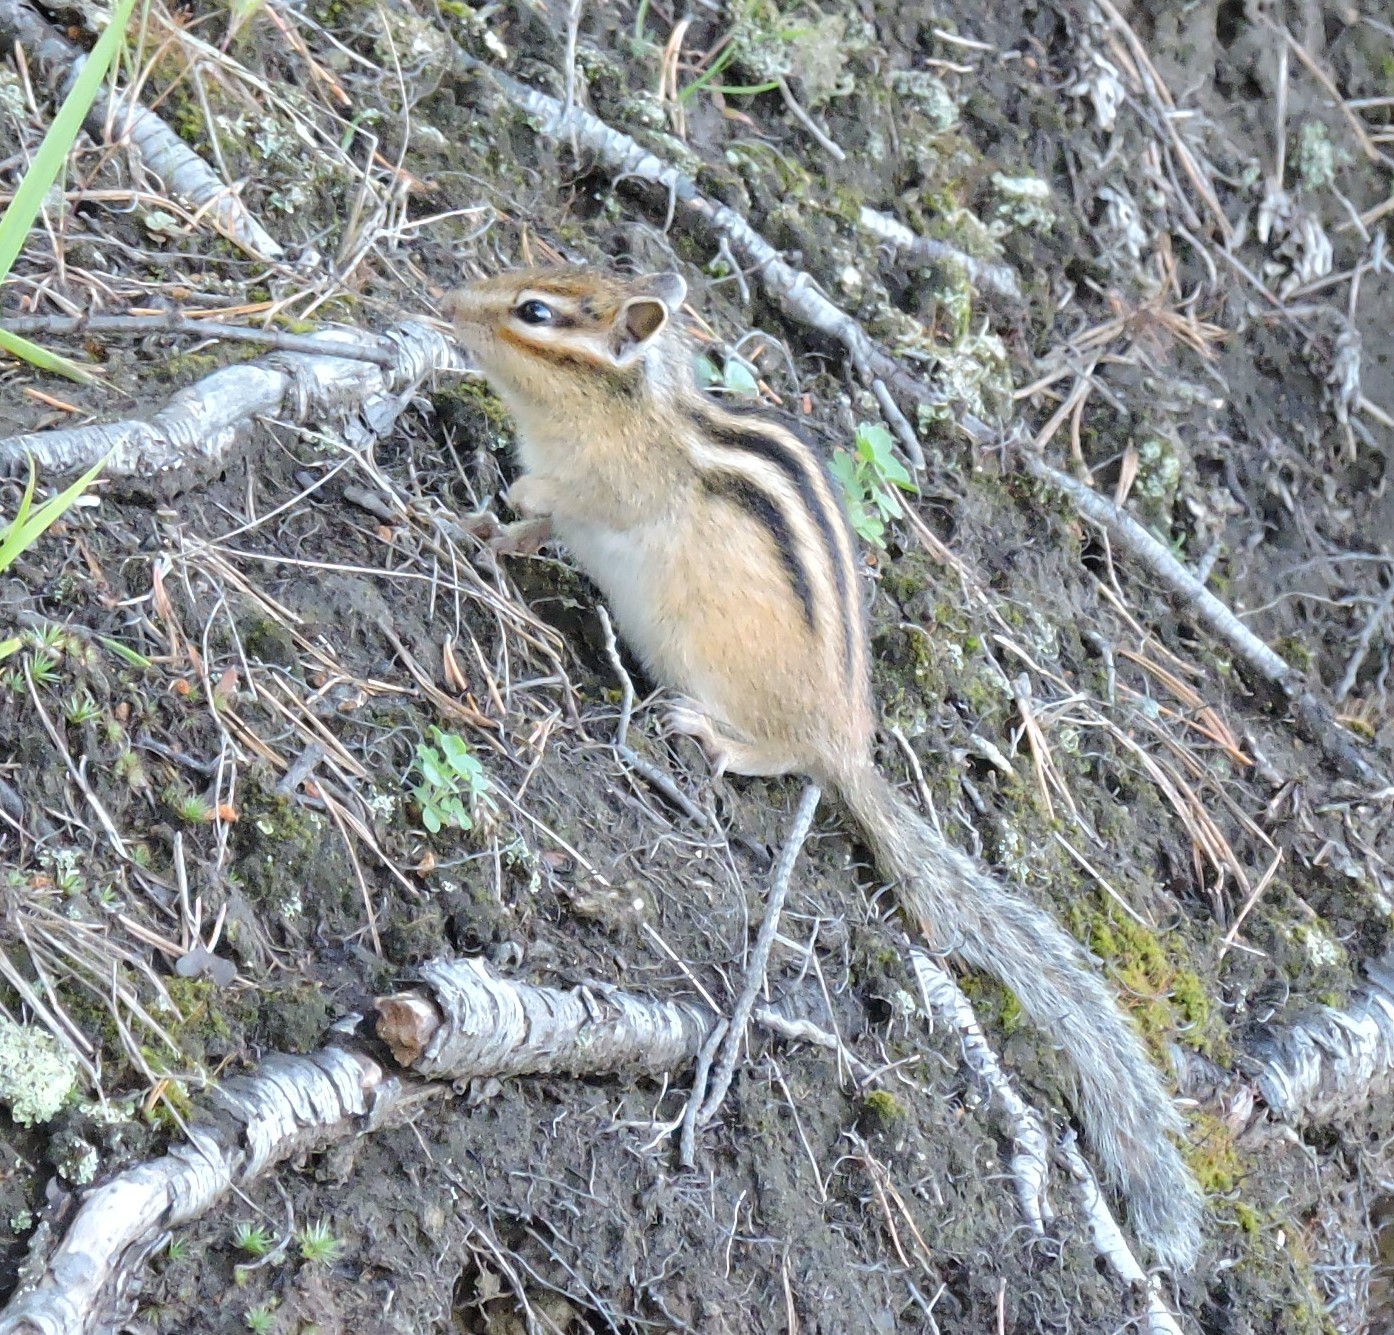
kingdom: Animalia
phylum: Chordata
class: Mammalia
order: Rodentia
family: Sciuridae
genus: Tamias
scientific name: Tamias sibiricus
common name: Siberian chipmunk
